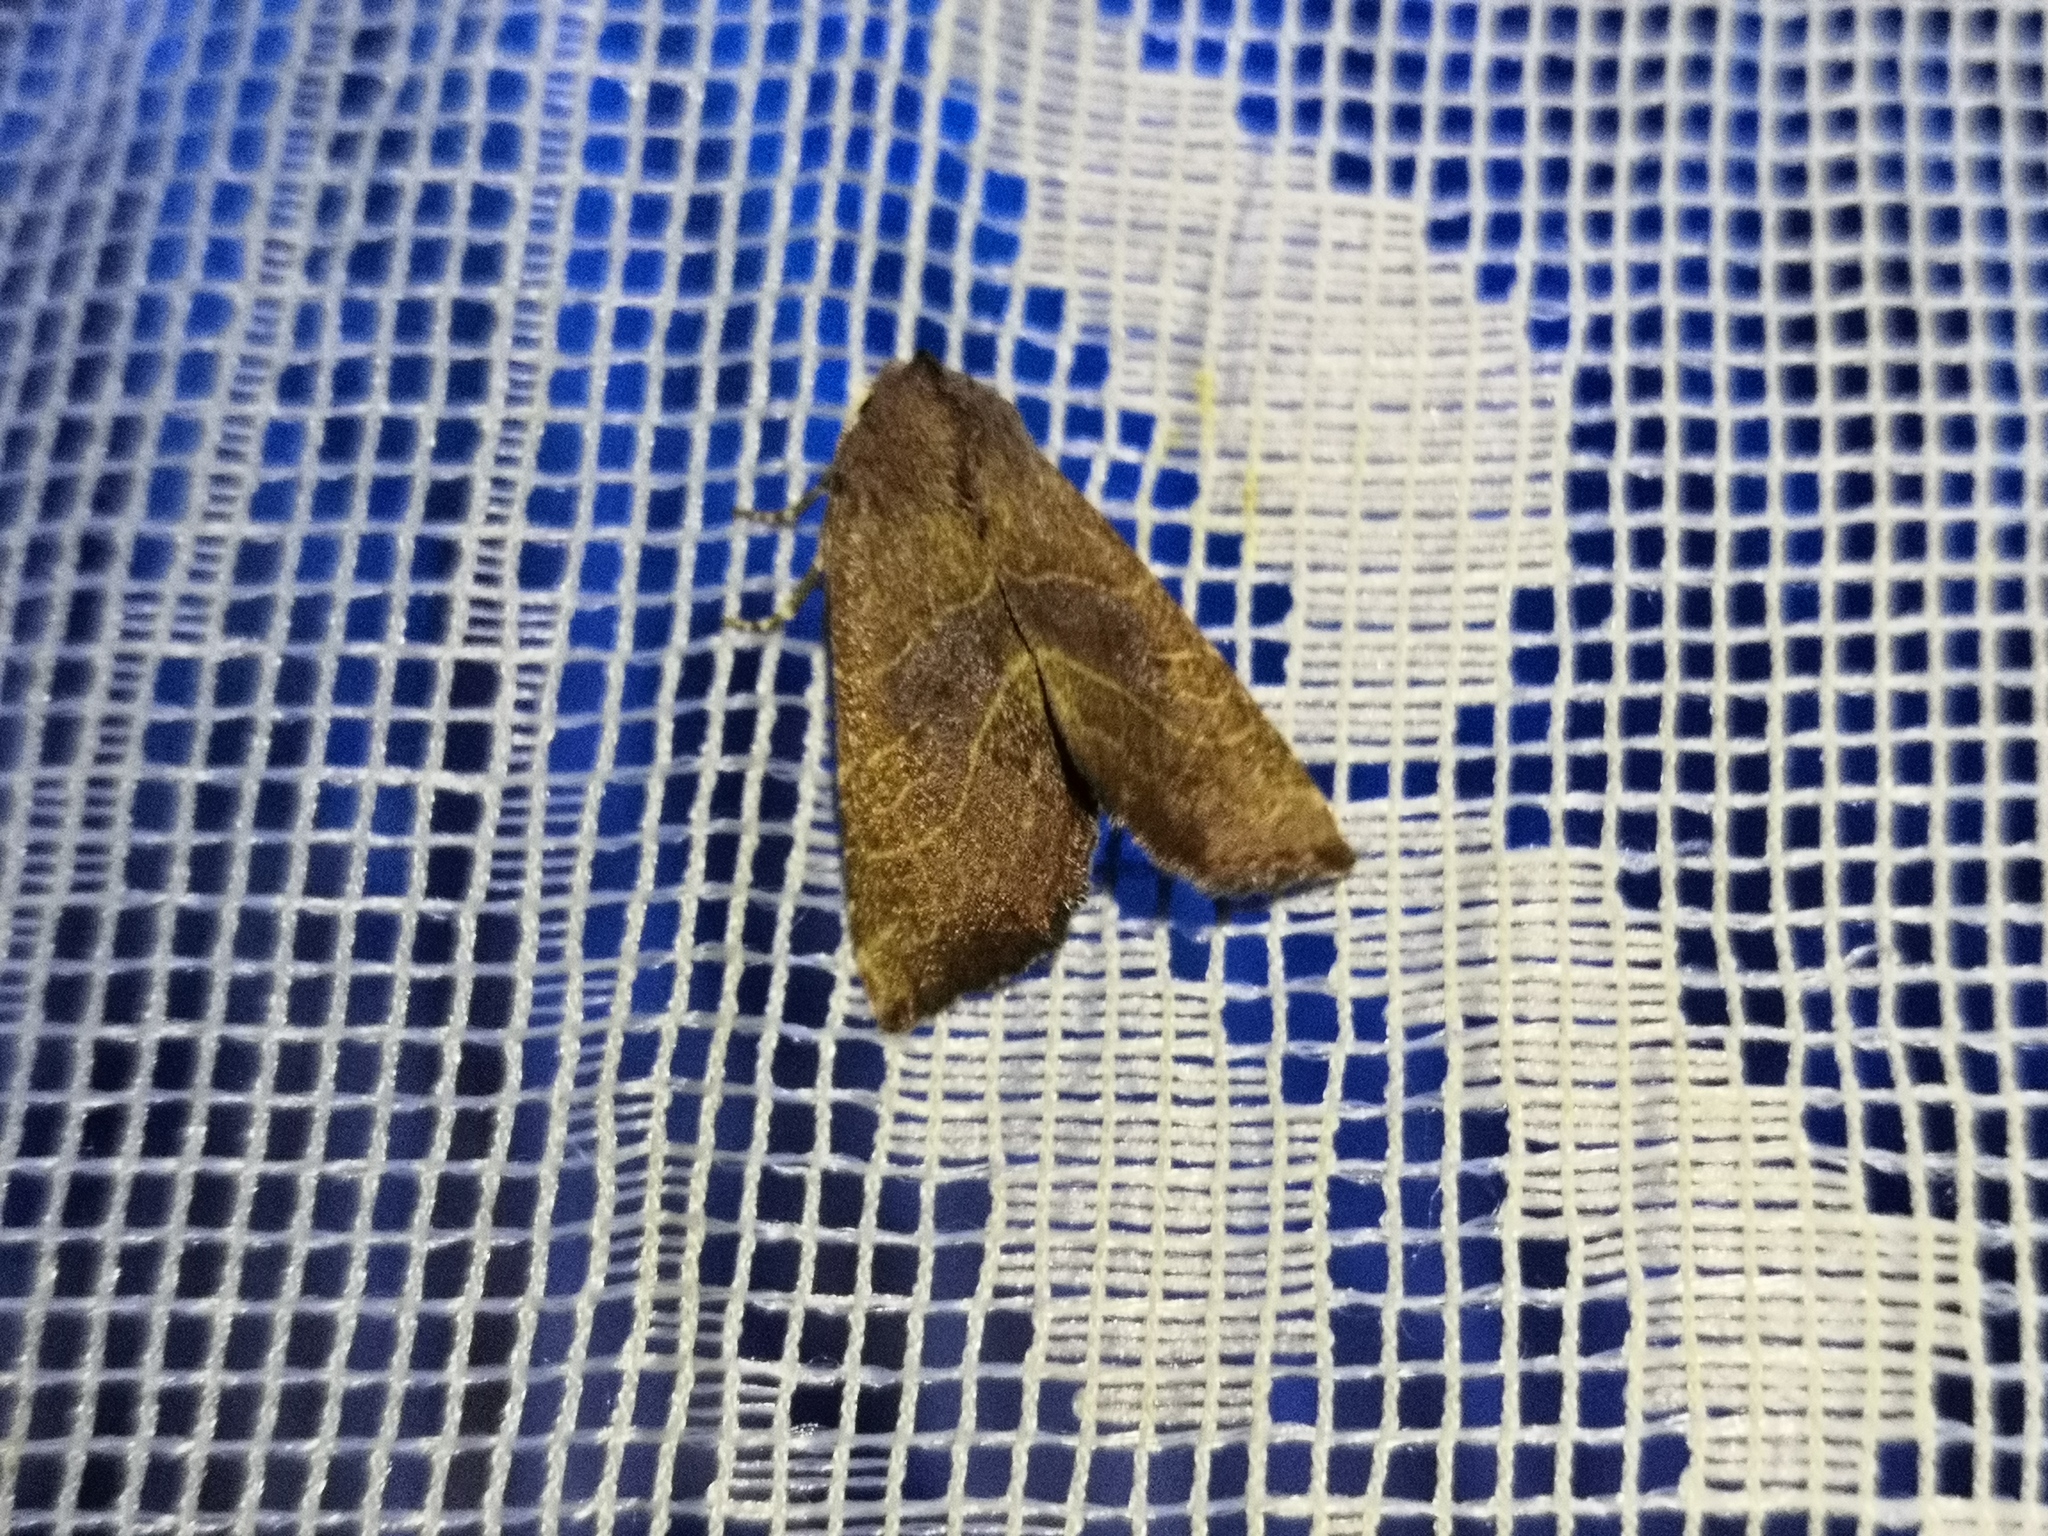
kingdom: Animalia
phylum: Arthropoda
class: Insecta
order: Lepidoptera
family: Noctuidae
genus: Atethmia
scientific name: Atethmia ambusta
